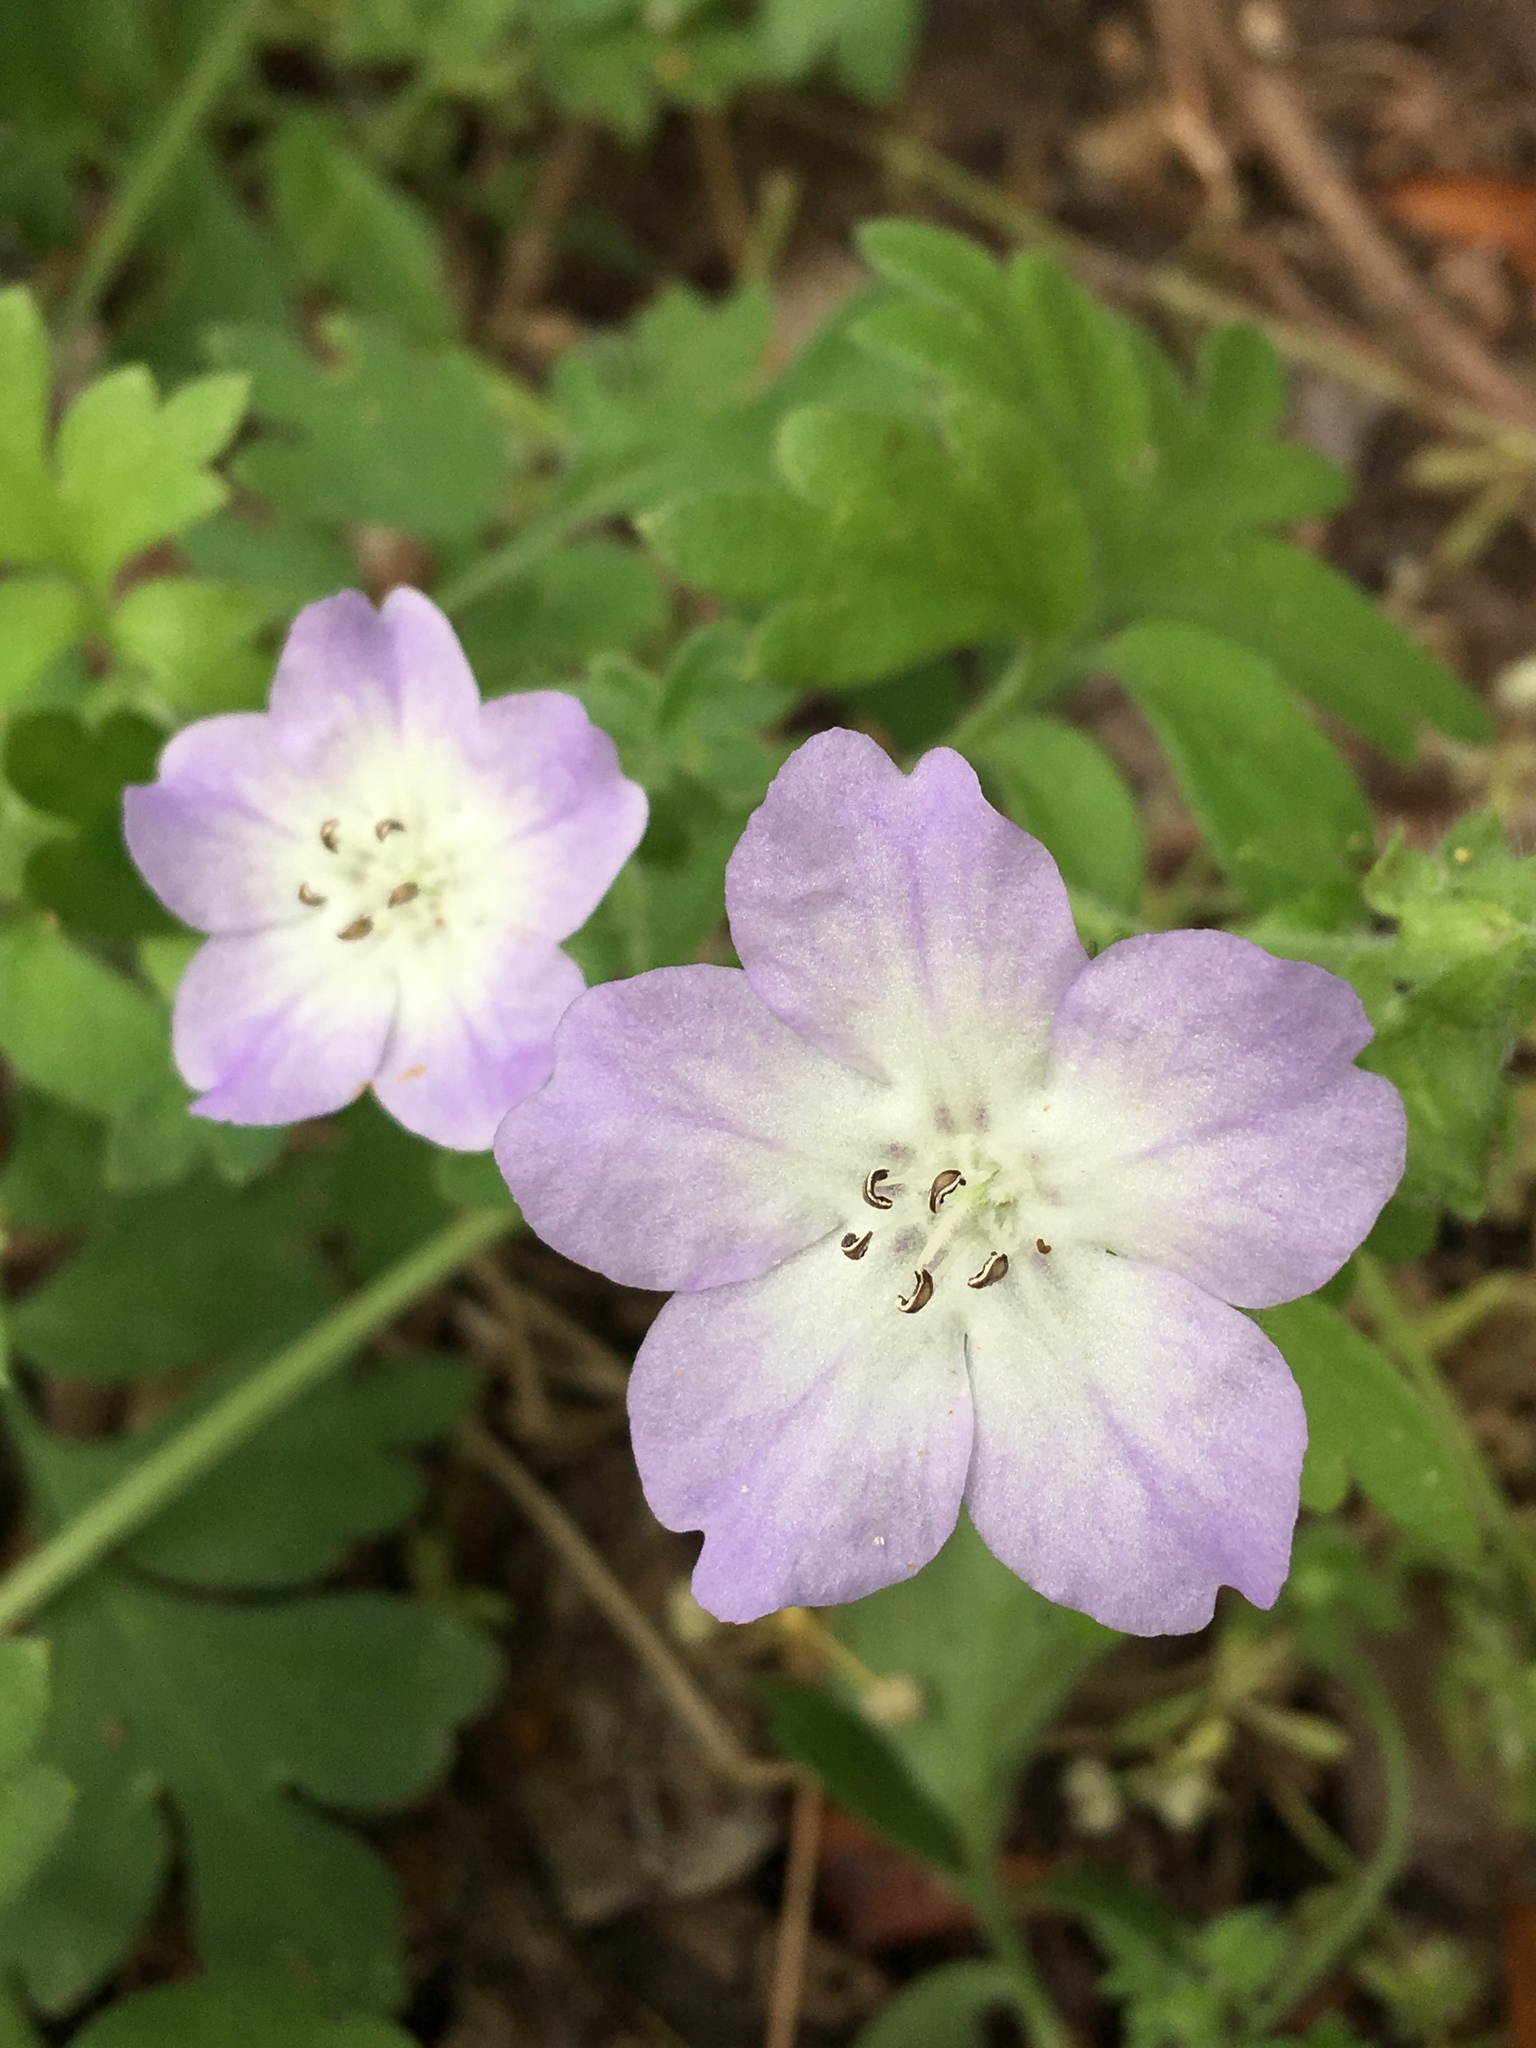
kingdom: Plantae
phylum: Tracheophyta
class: Magnoliopsida
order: Boraginales
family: Hydrophyllaceae
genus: Nemophila
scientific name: Nemophila phacelioides
